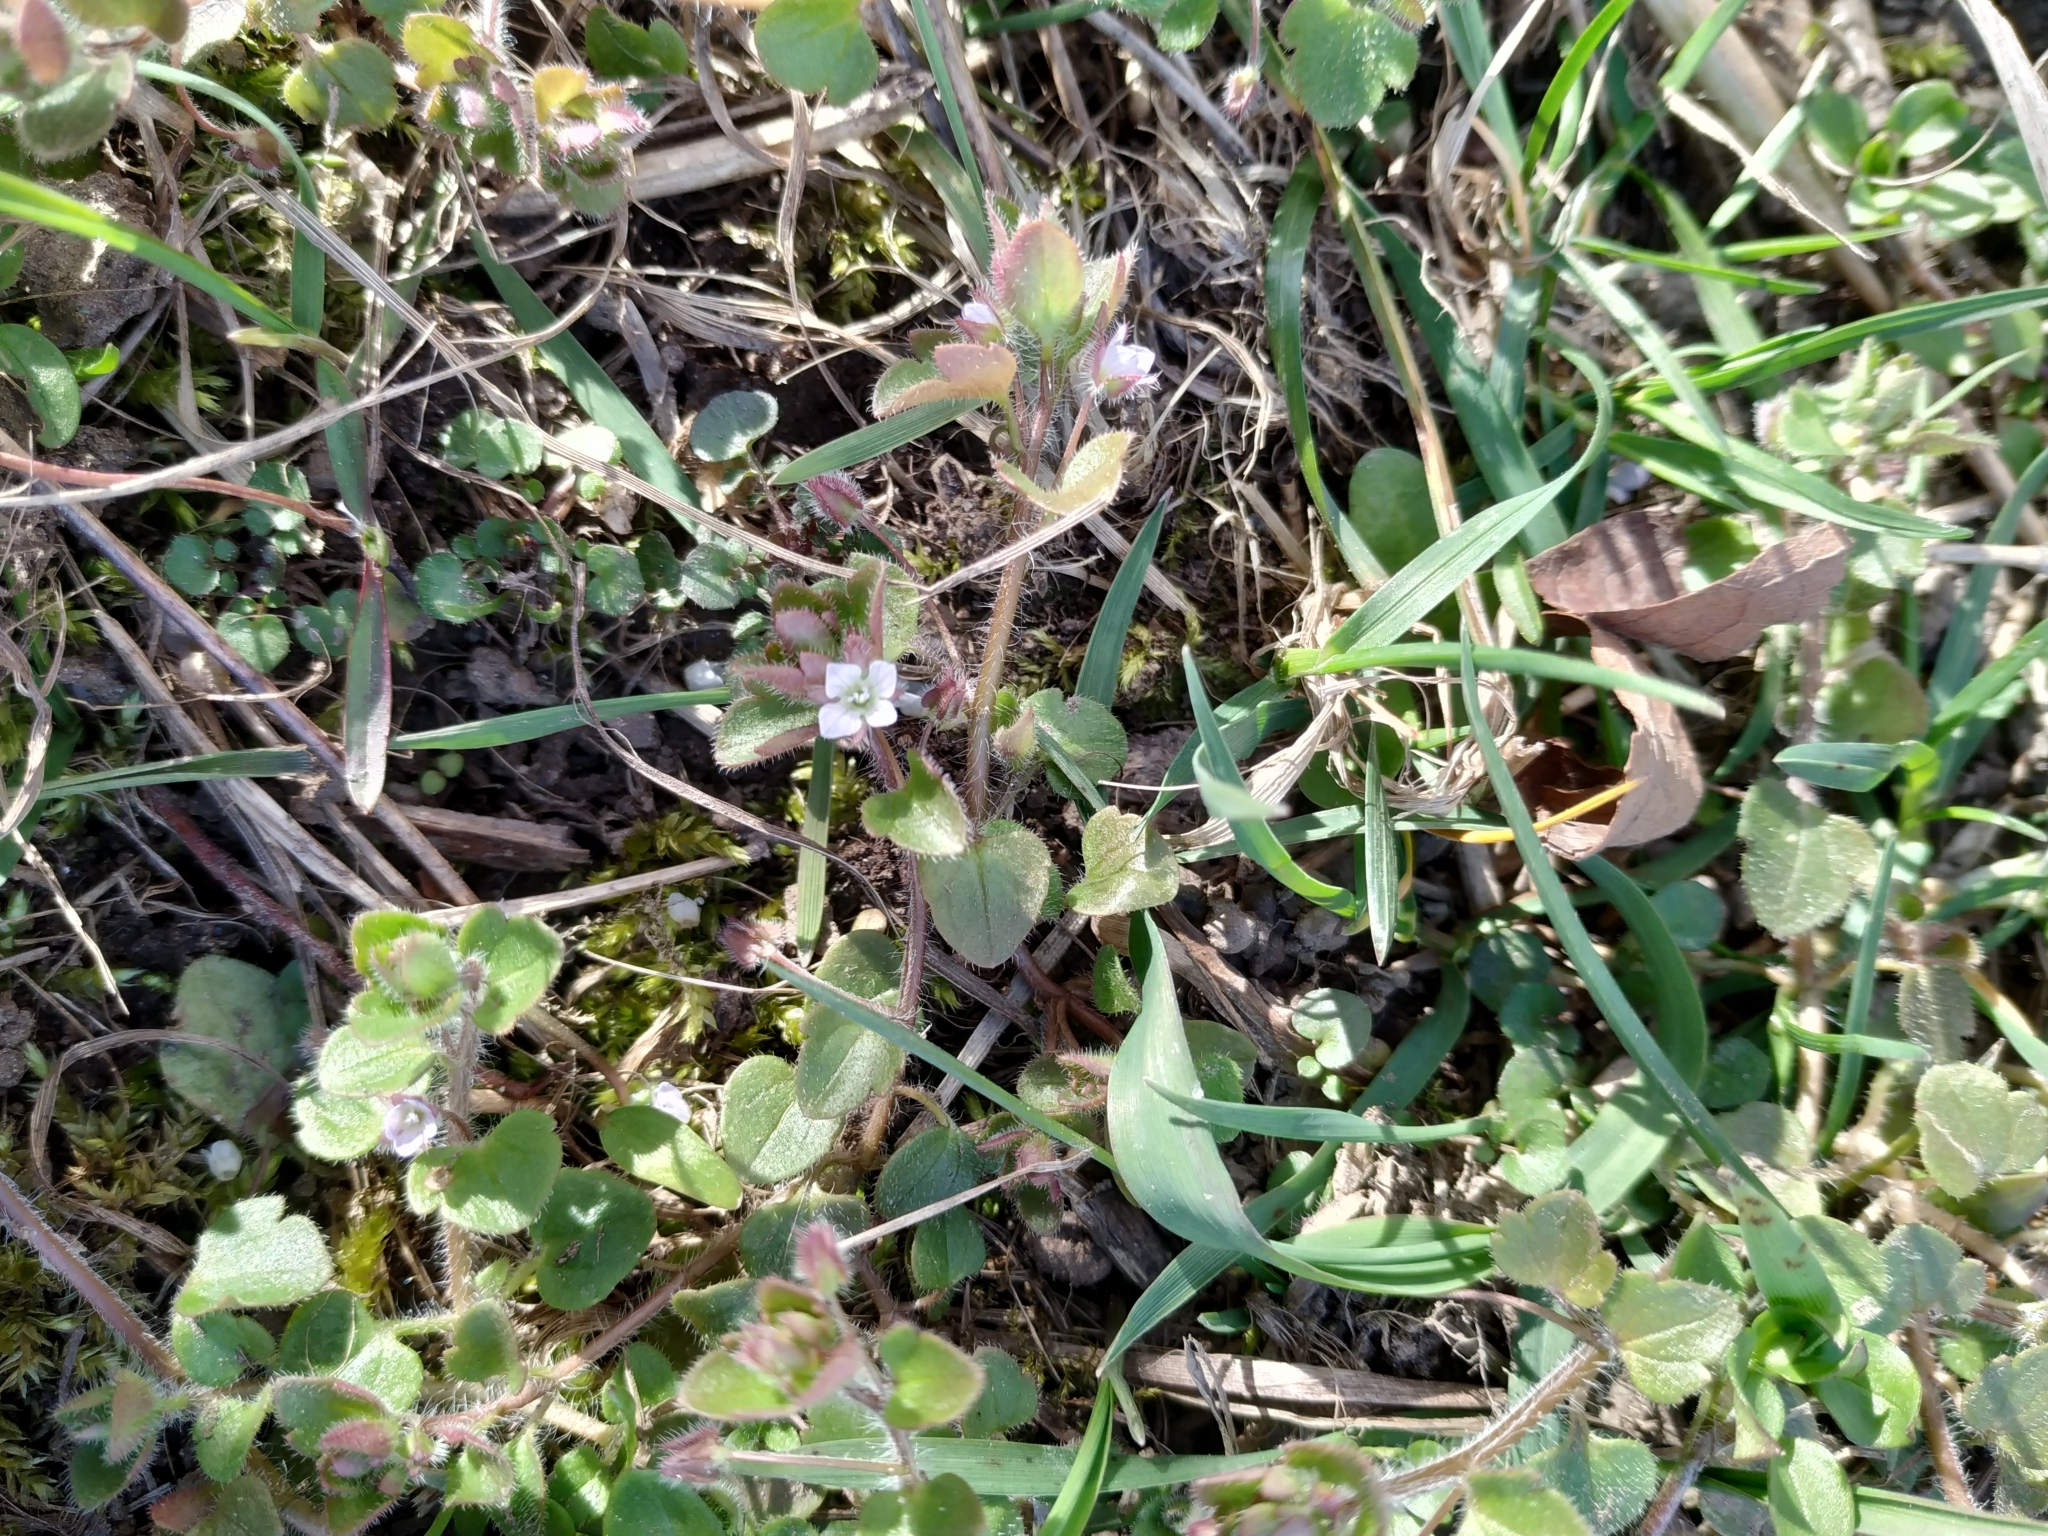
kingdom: Plantae
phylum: Tracheophyta
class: Magnoliopsida
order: Lamiales
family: Plantaginaceae
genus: Veronica
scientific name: Veronica sublobata
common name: False ivy-leaved speedwell
